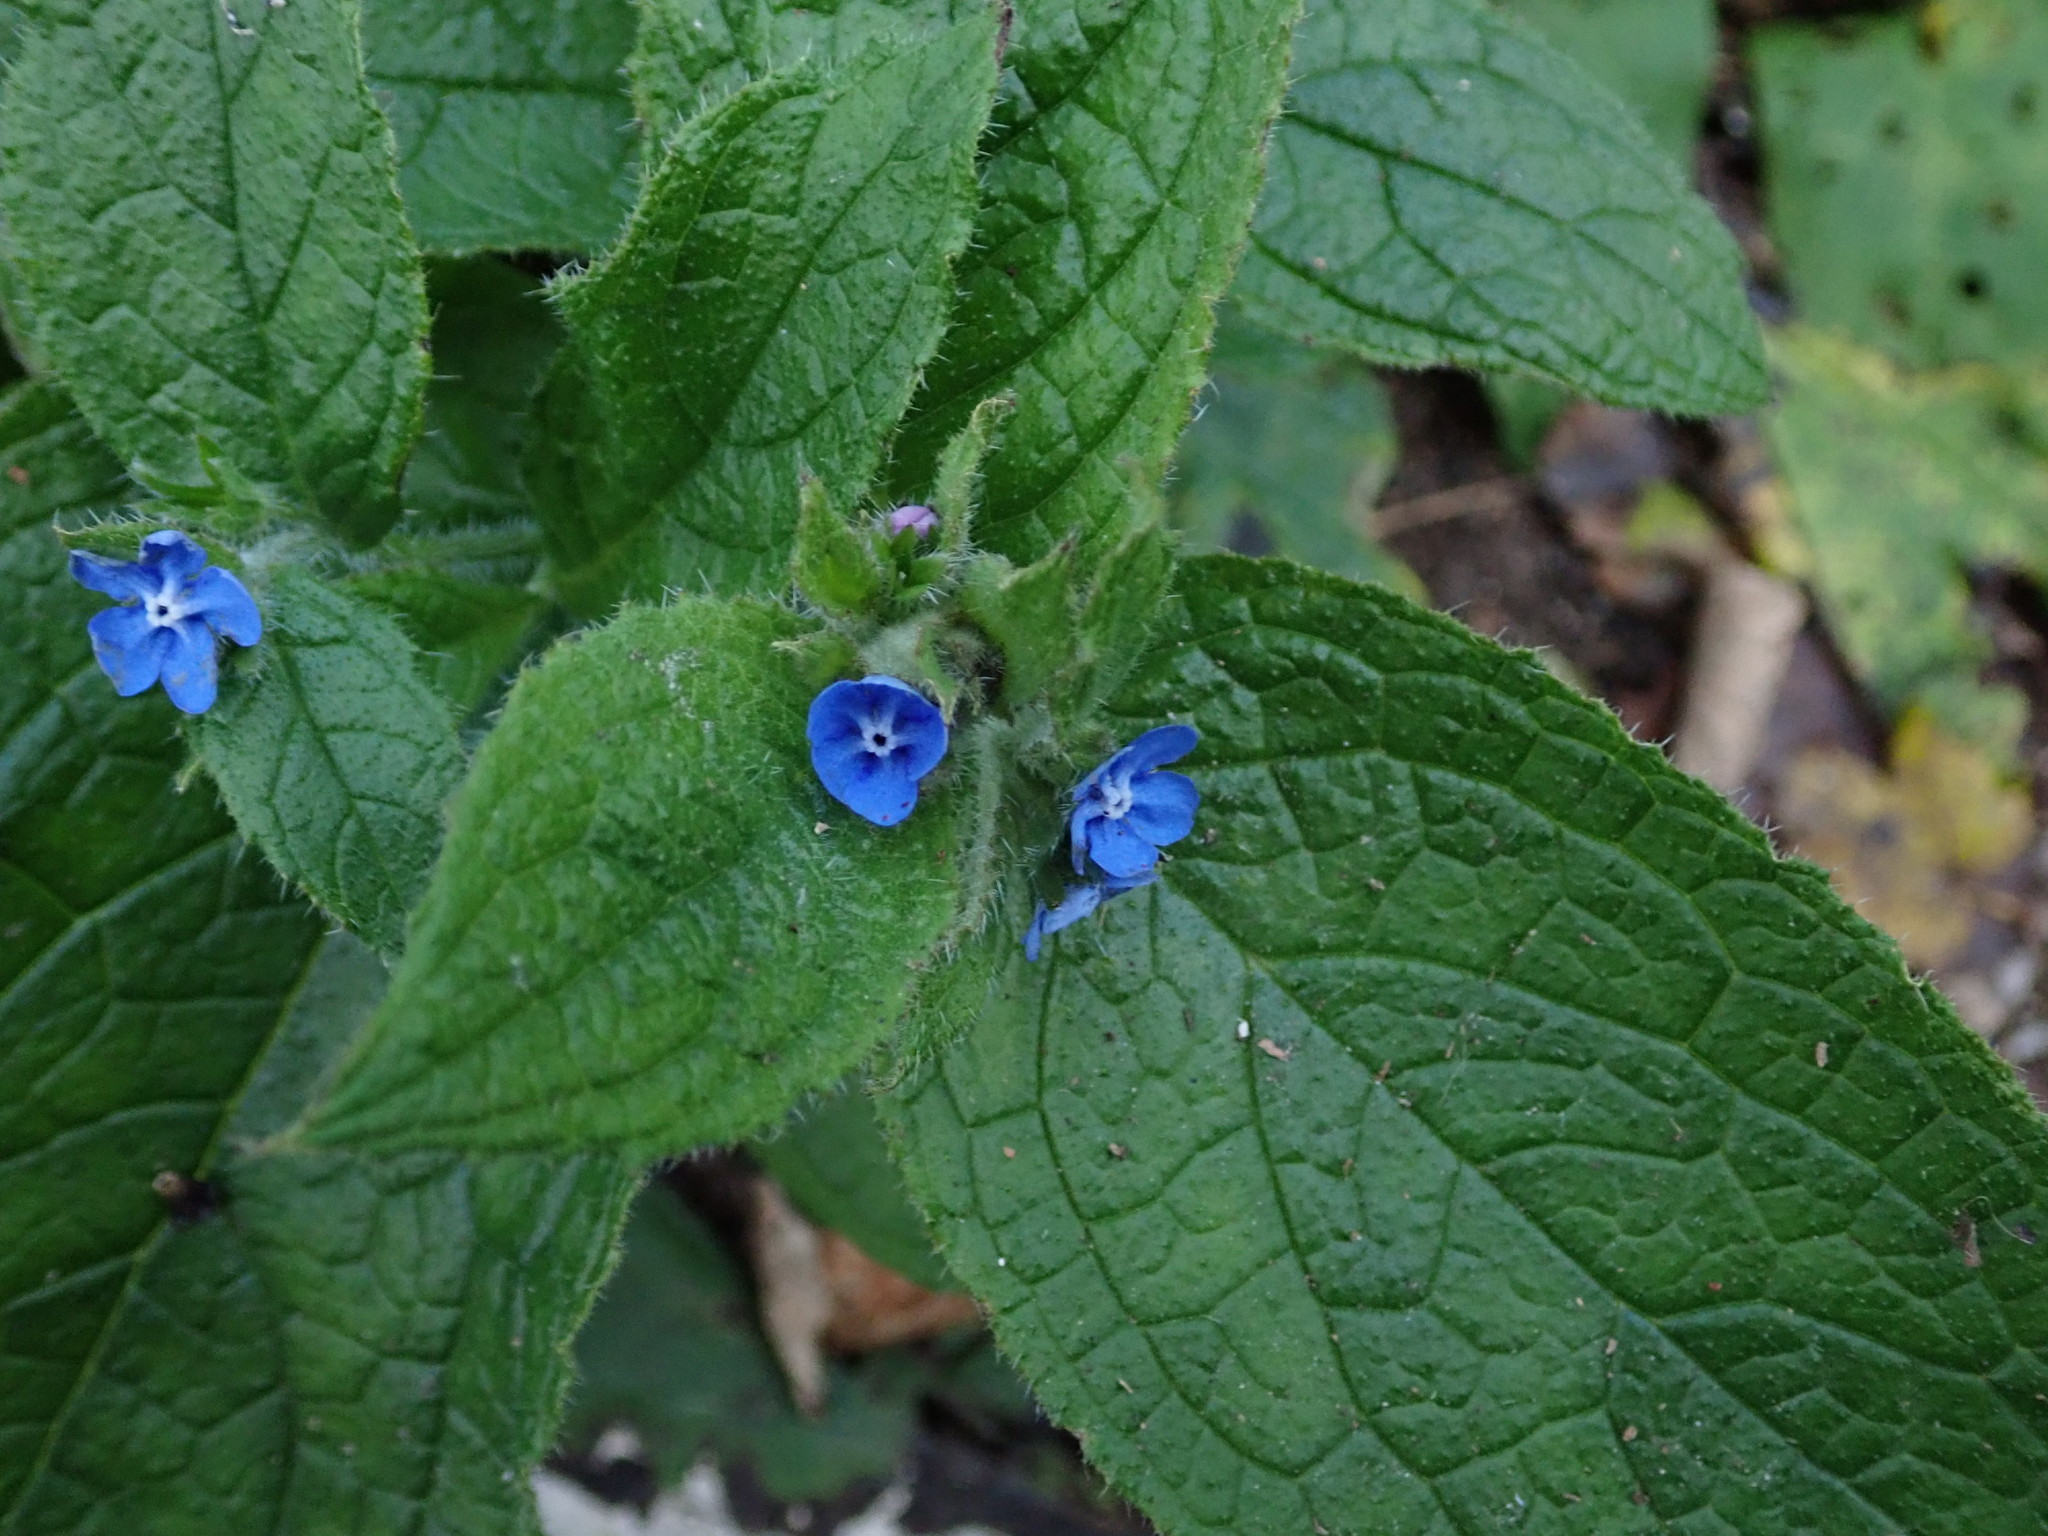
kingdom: Plantae
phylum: Tracheophyta
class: Magnoliopsida
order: Boraginales
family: Boraginaceae
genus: Pentaglottis
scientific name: Pentaglottis sempervirens
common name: Green alkanet
